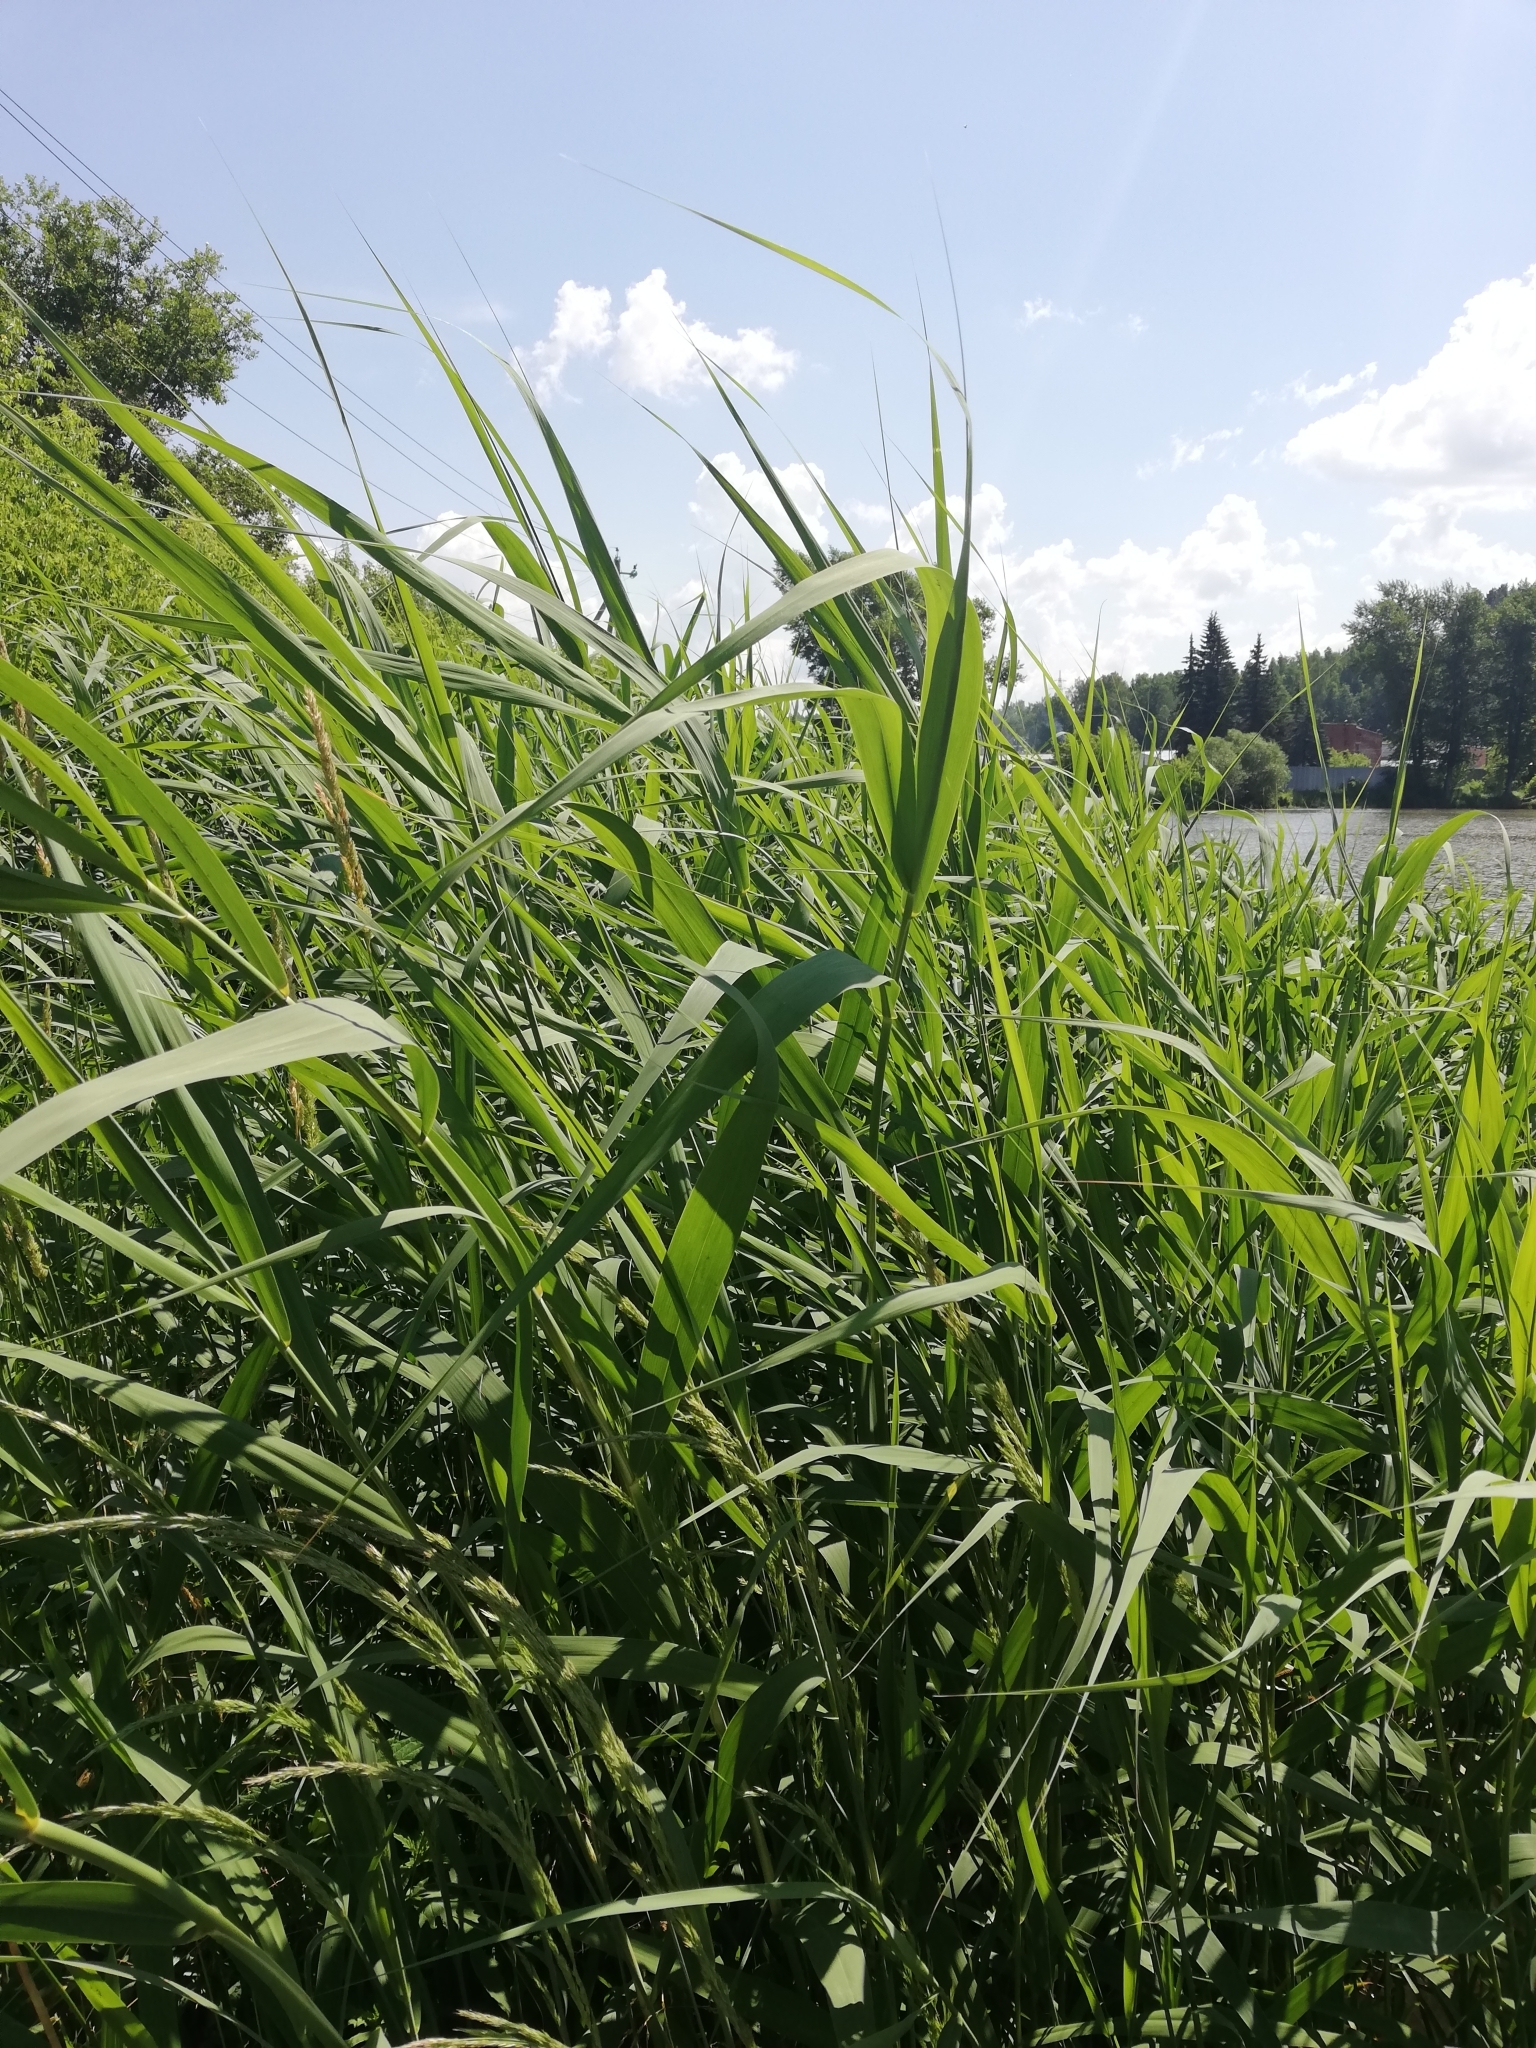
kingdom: Plantae
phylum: Tracheophyta
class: Liliopsida
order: Poales
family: Poaceae
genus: Phragmites
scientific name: Phragmites australis
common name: Common reed
